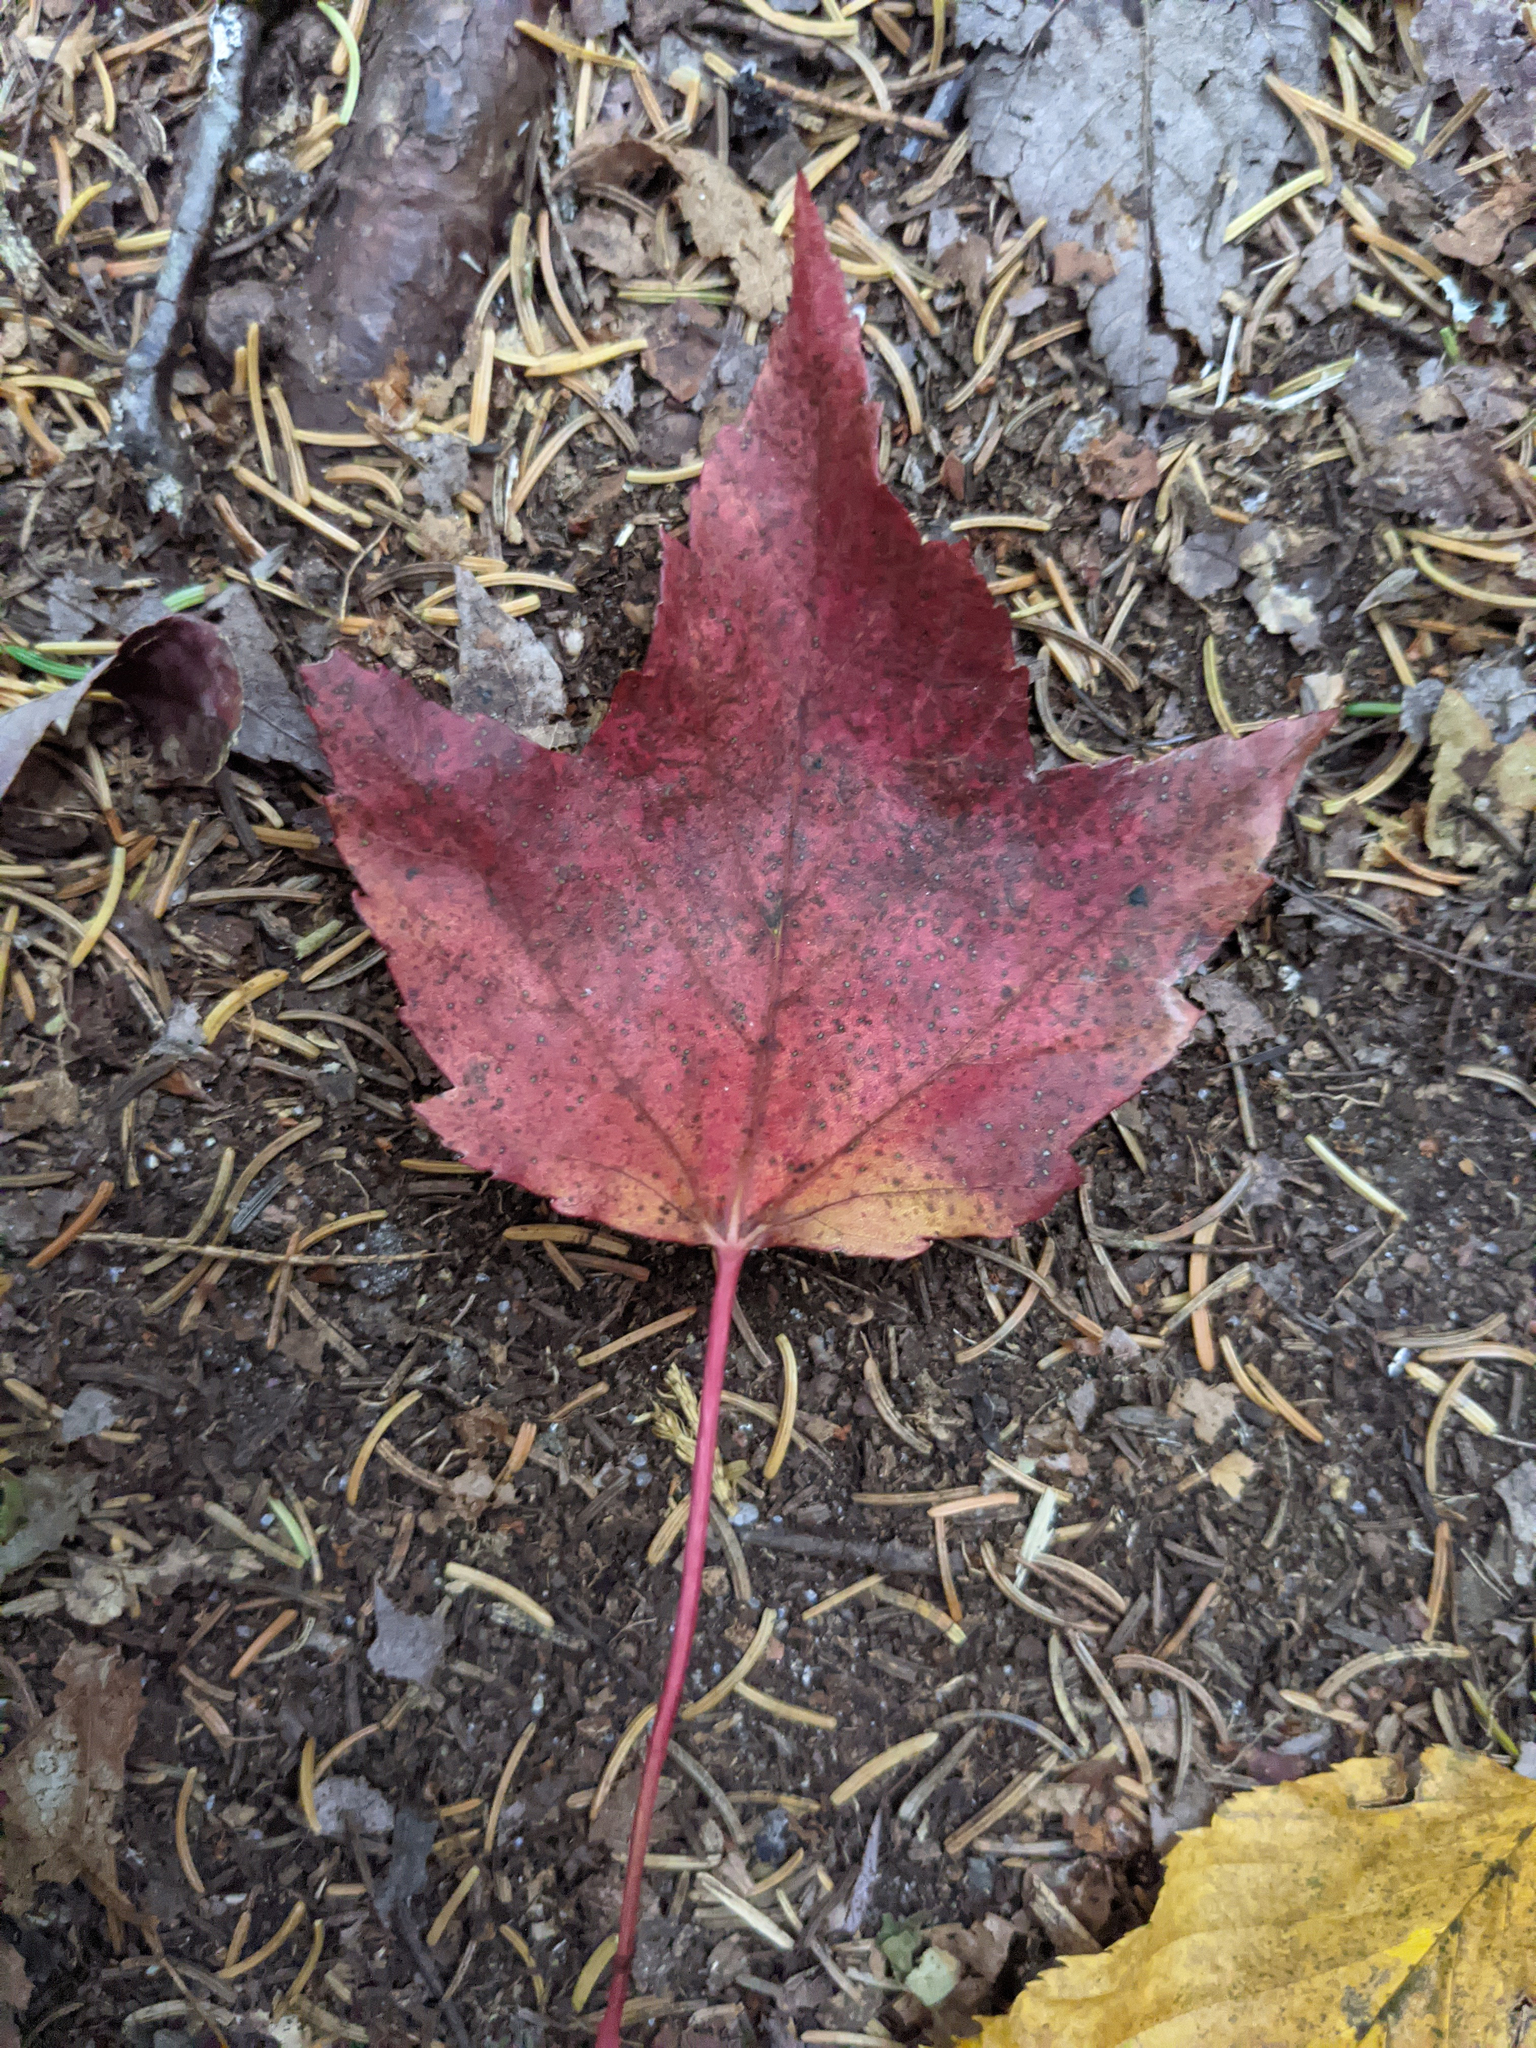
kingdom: Plantae
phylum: Tracheophyta
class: Magnoliopsida
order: Sapindales
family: Sapindaceae
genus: Acer
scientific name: Acer rubrum
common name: Red maple
